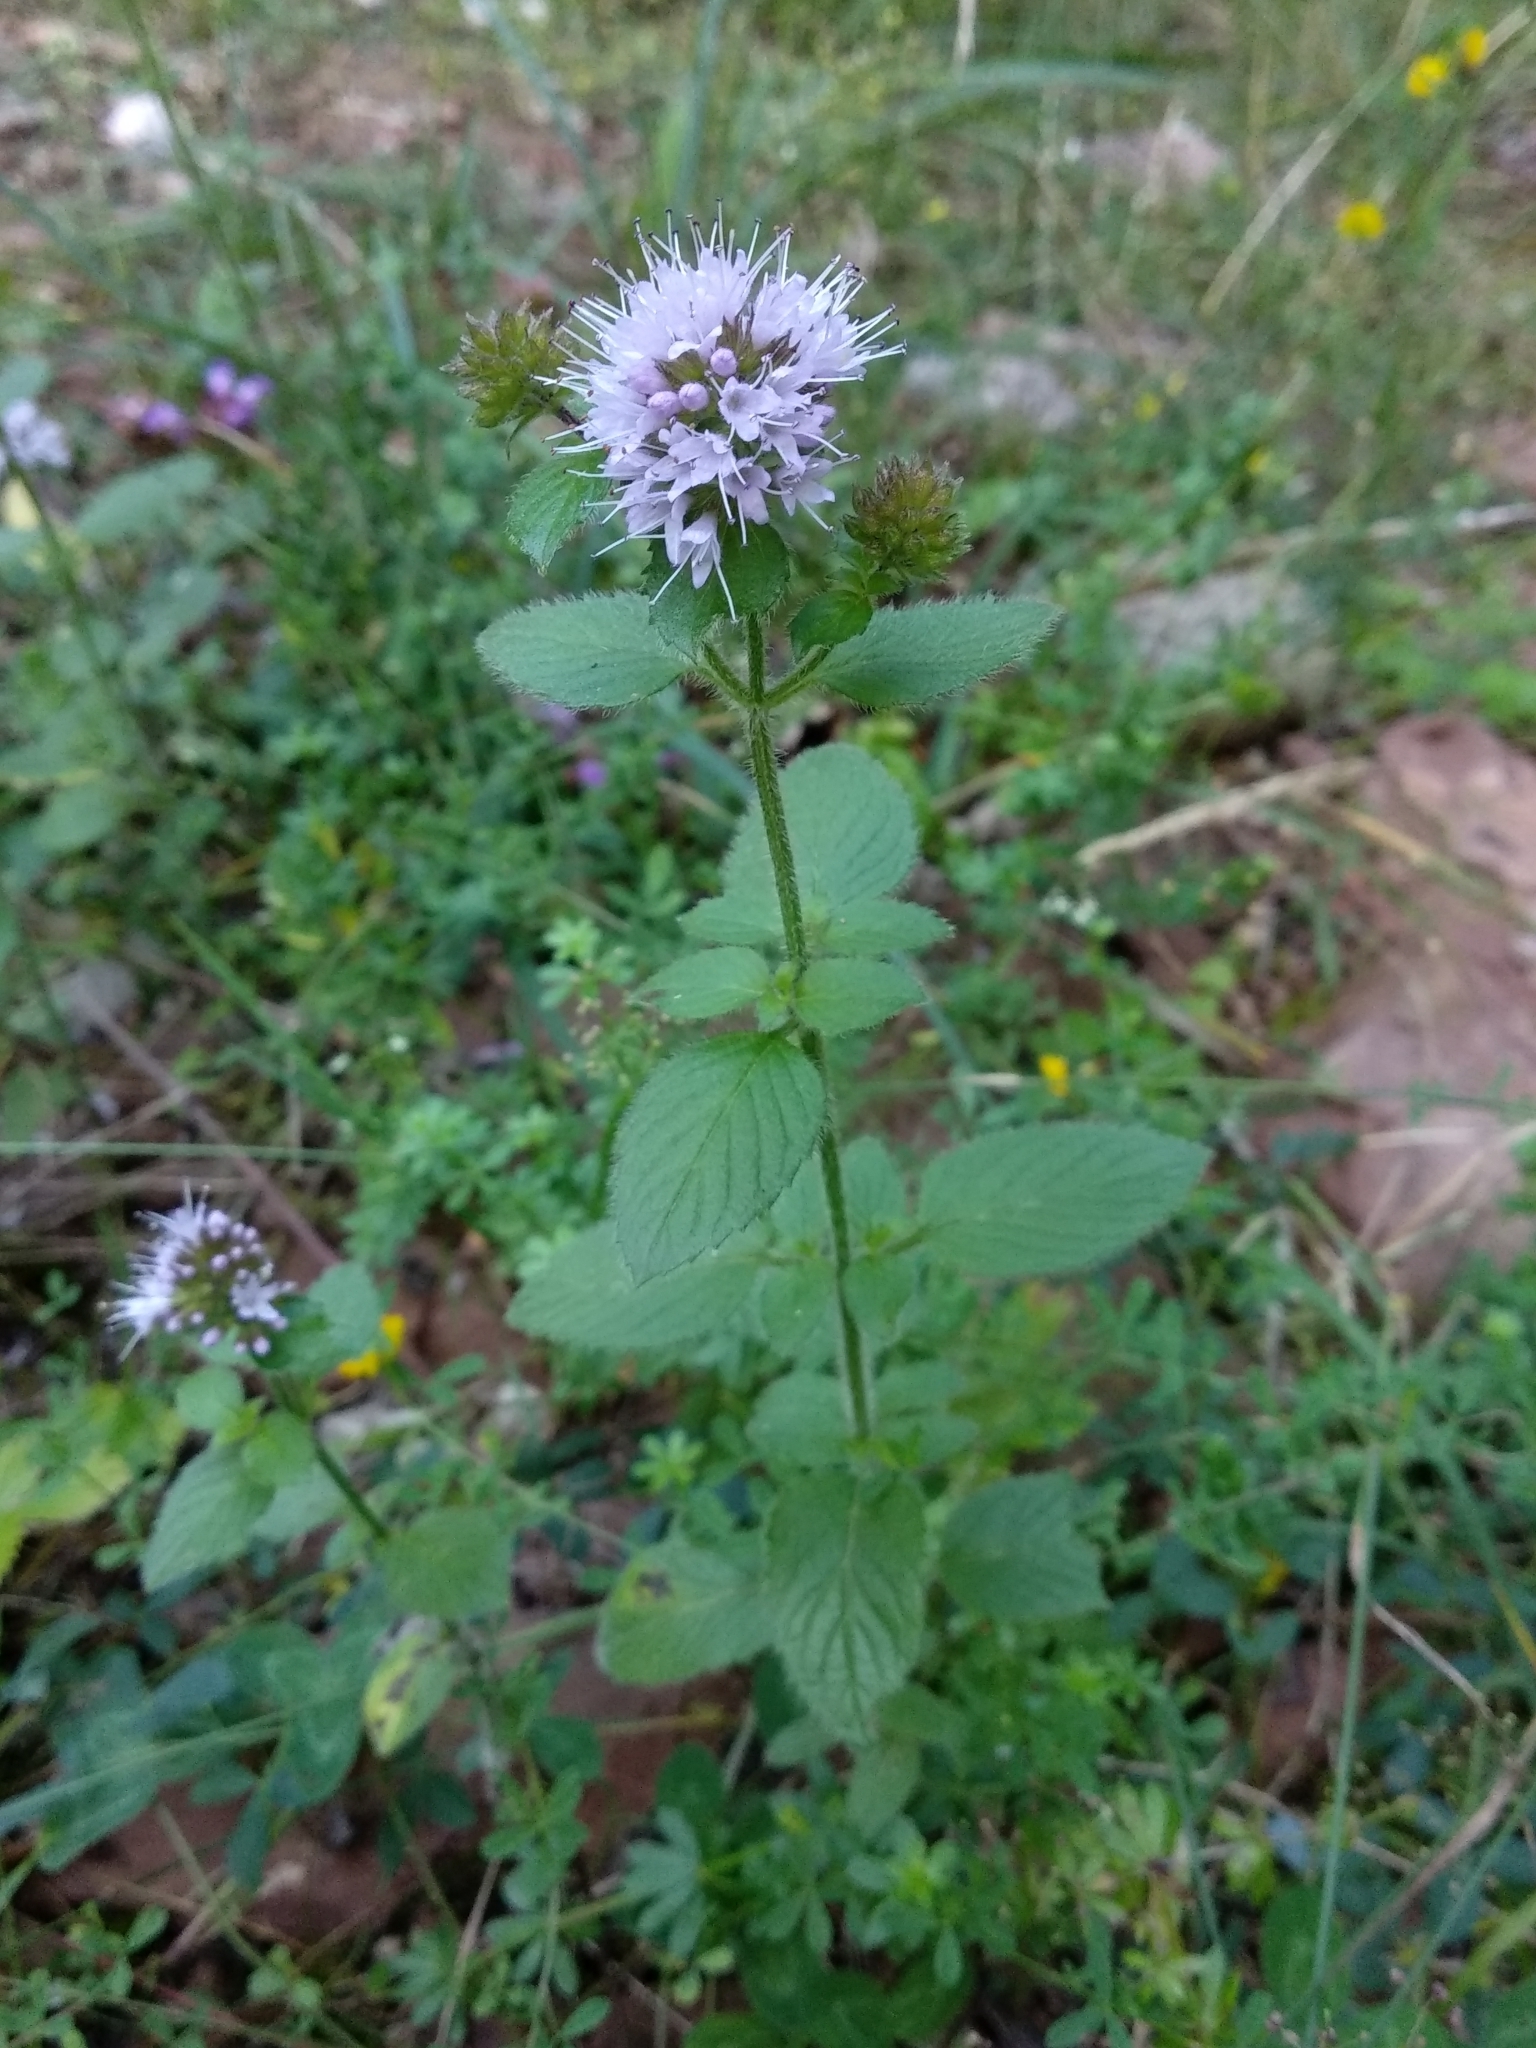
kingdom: Plantae
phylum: Tracheophyta
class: Magnoliopsida
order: Lamiales
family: Lamiaceae
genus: Mentha
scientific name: Mentha aquatica
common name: Water mint
